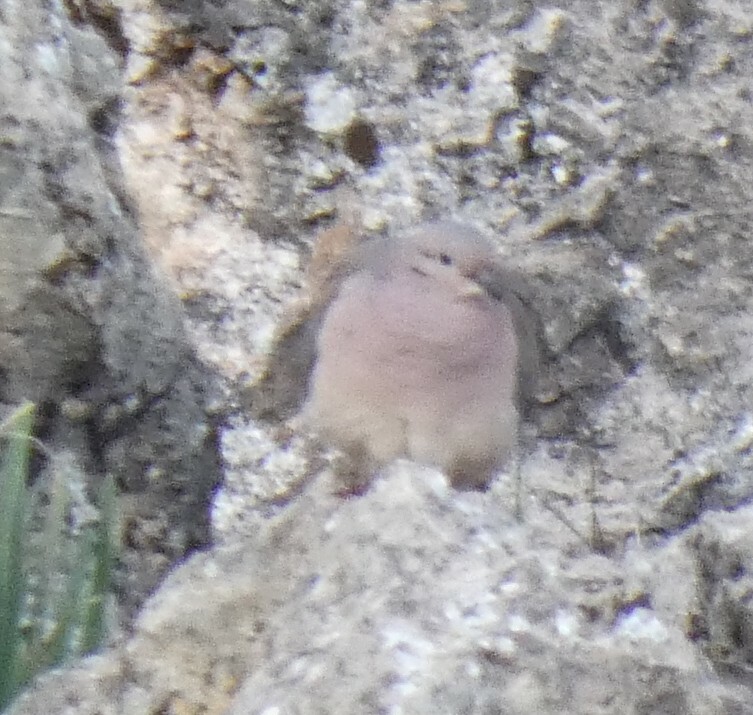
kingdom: Animalia
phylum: Chordata
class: Aves
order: Columbiformes
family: Columbidae
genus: Zenaida
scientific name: Zenaida auriculata
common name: Eared dove
